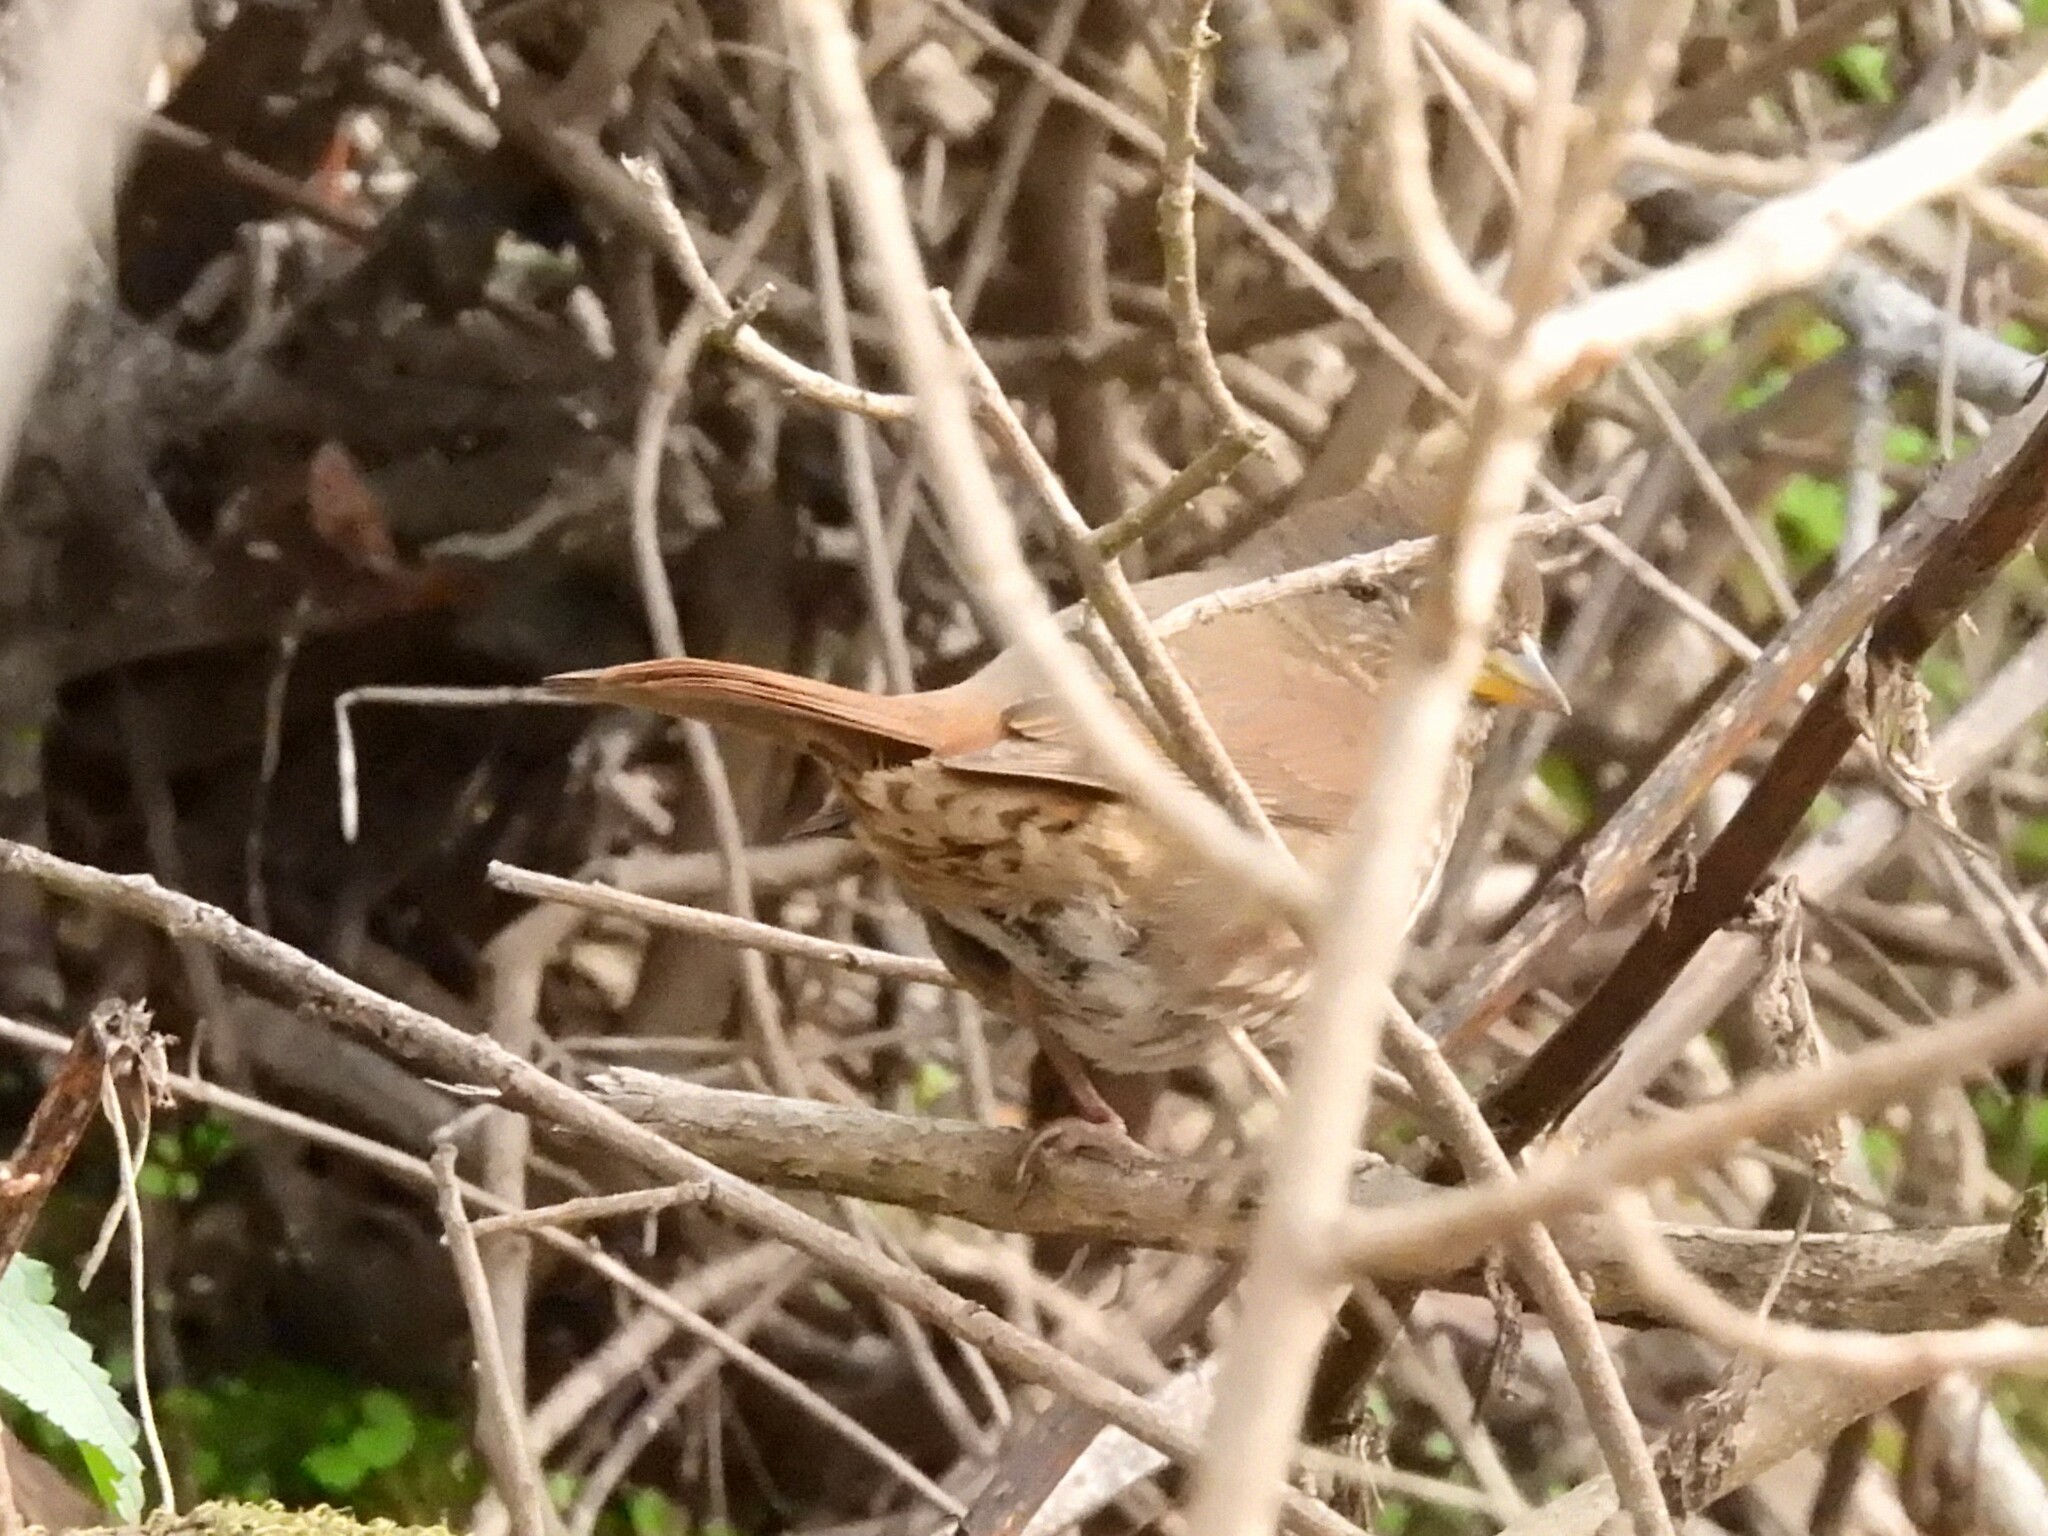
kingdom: Animalia
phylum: Chordata
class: Aves
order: Passeriformes
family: Passerellidae
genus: Passerella
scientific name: Passerella iliaca
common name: Fox sparrow
